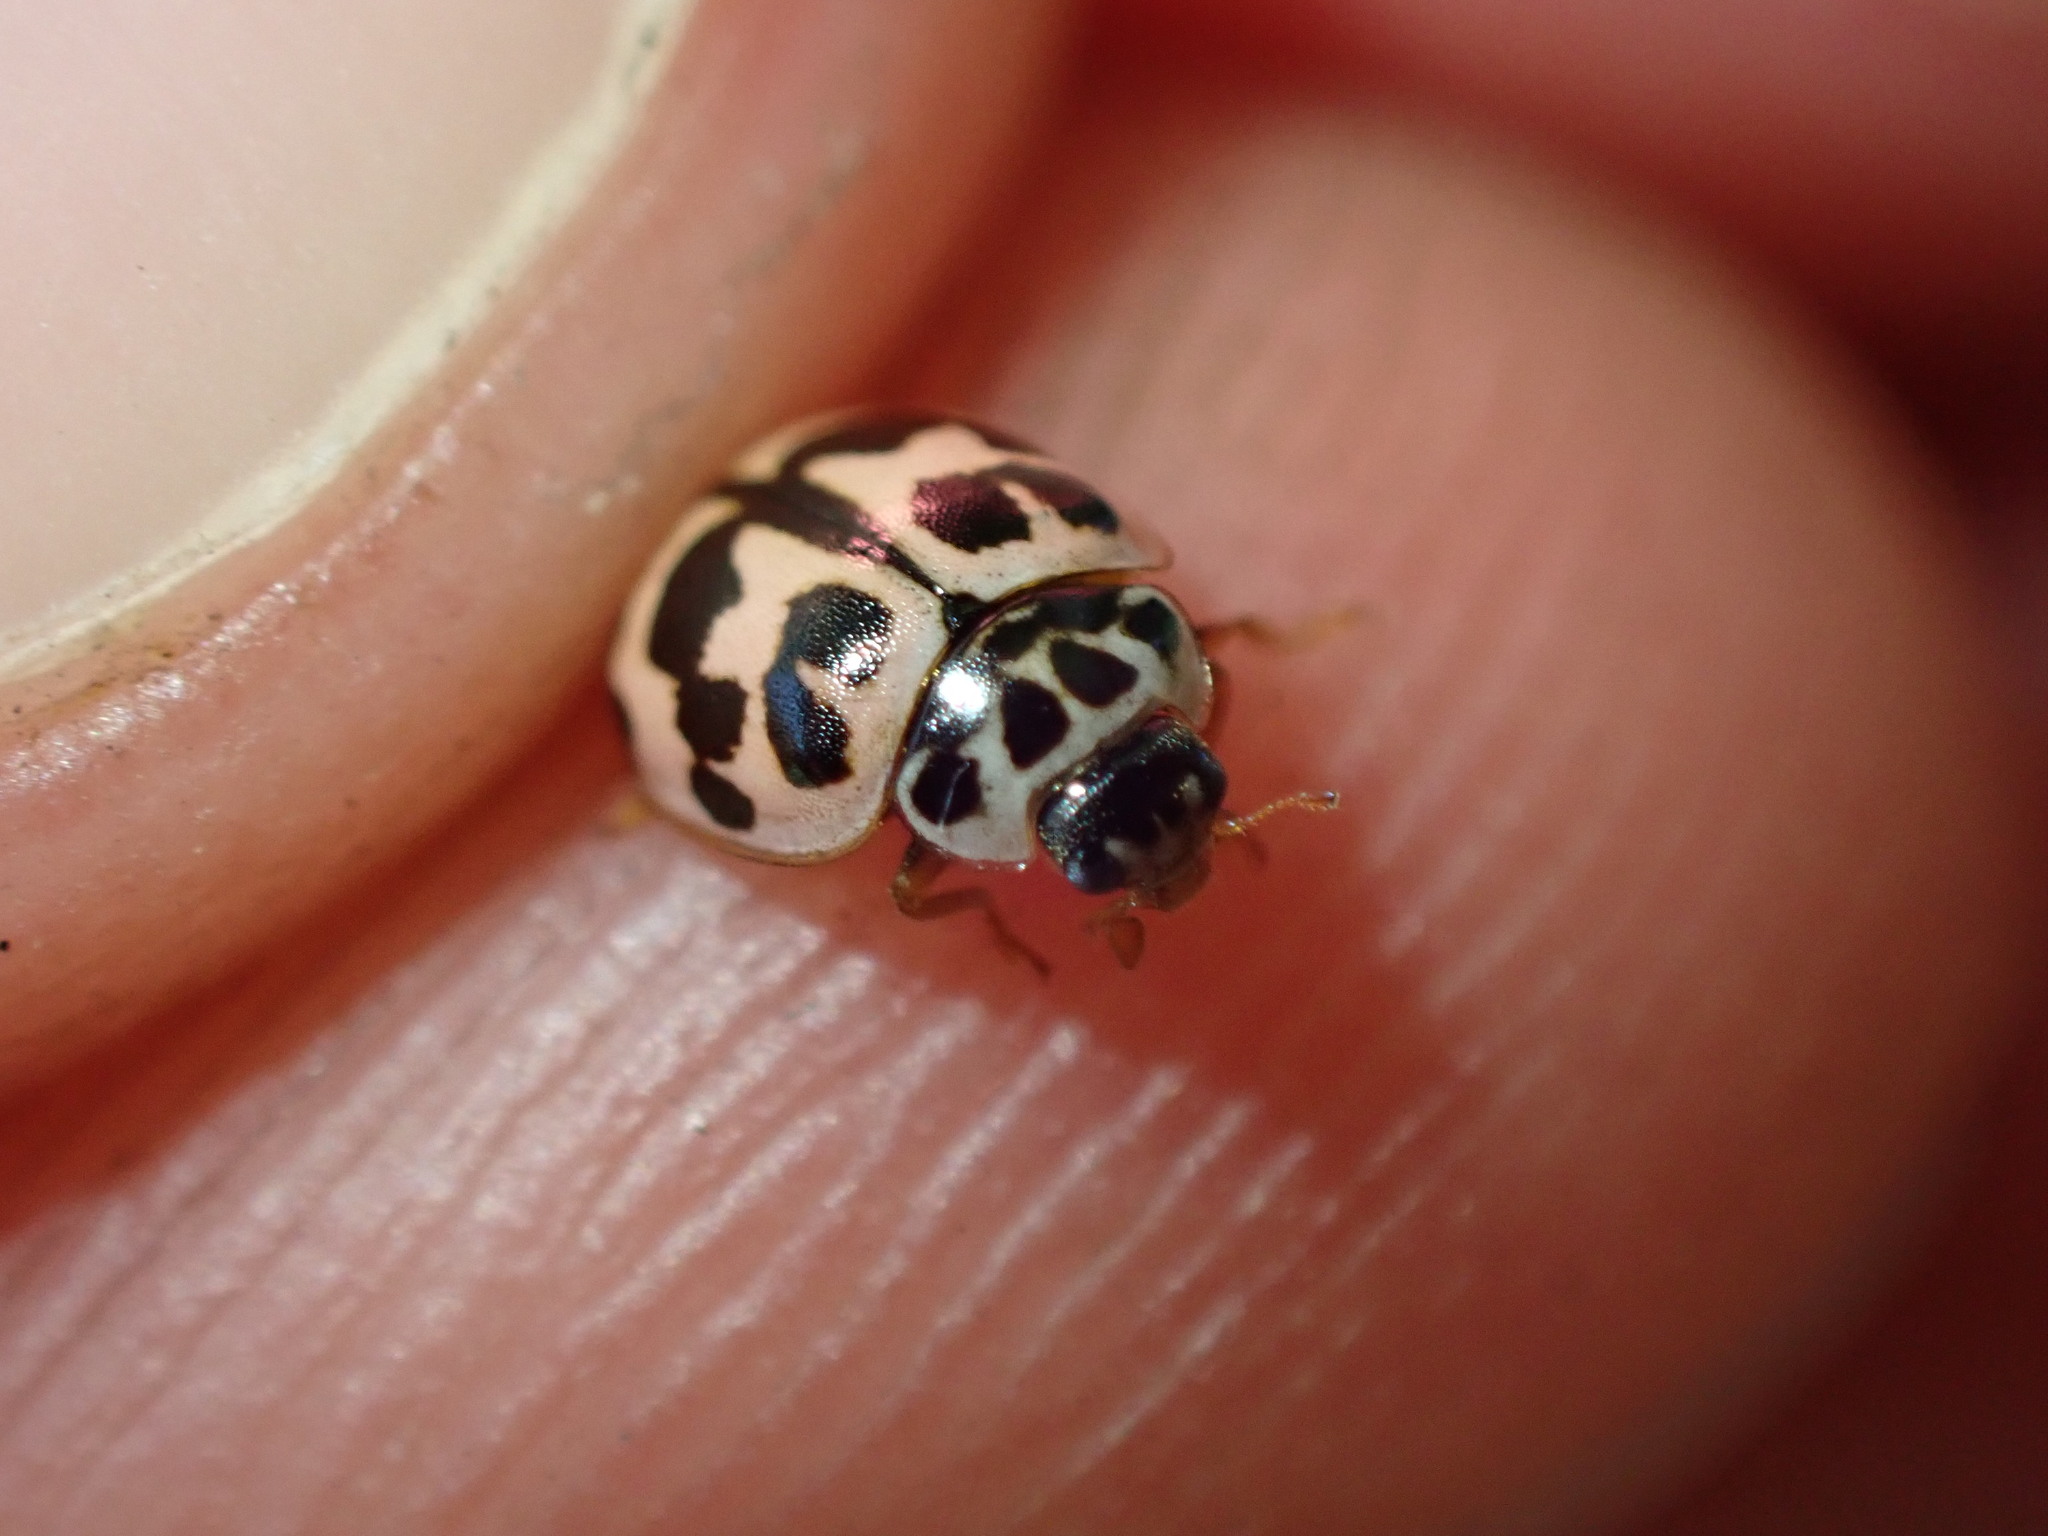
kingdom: Animalia
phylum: Arthropoda
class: Insecta
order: Coleoptera
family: Coccinellidae
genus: Oenopia
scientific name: Oenopia conglobata
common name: Ladybird beetle
